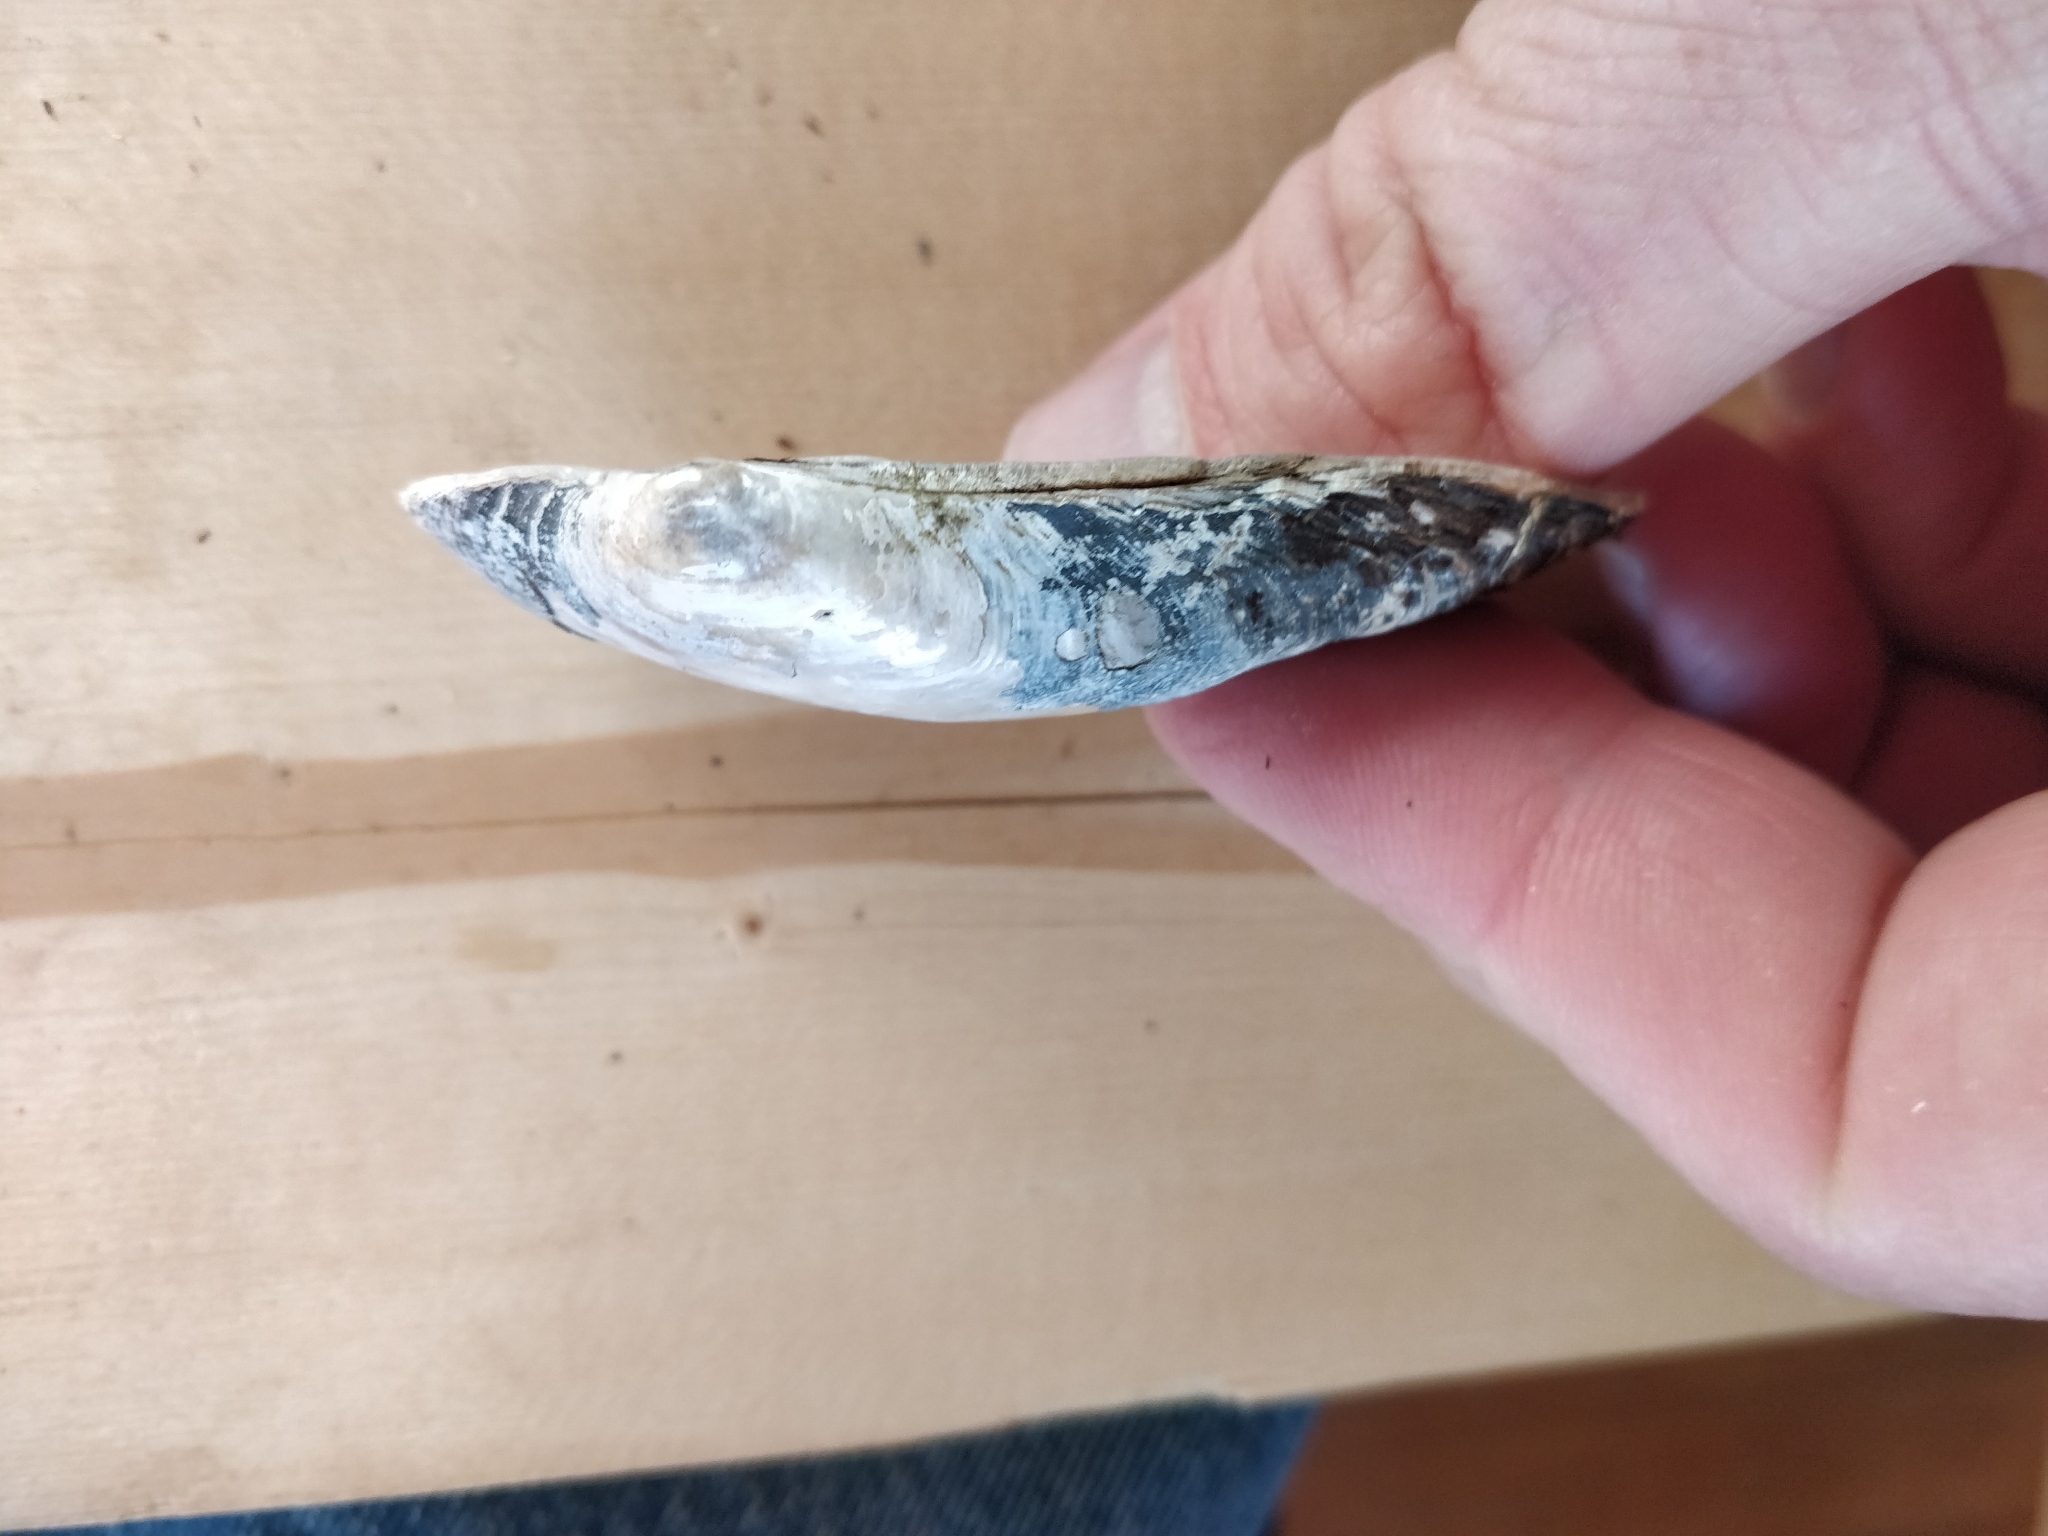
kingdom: Animalia
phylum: Mollusca
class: Bivalvia
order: Unionida
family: Unionidae
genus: Lasmigona
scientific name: Lasmigona compressa
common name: Creek heelsplitter
